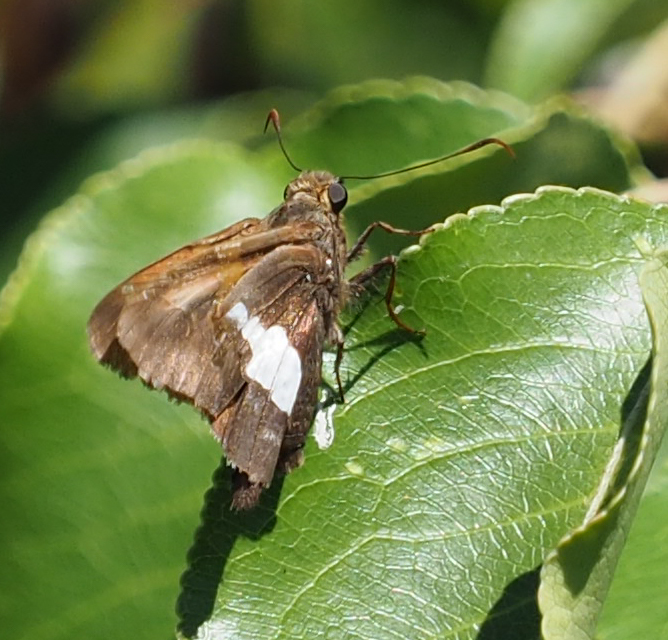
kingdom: Animalia
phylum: Arthropoda
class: Insecta
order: Lepidoptera
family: Hesperiidae
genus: Epargyreus
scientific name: Epargyreus clarus
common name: Silver-spotted skipper
